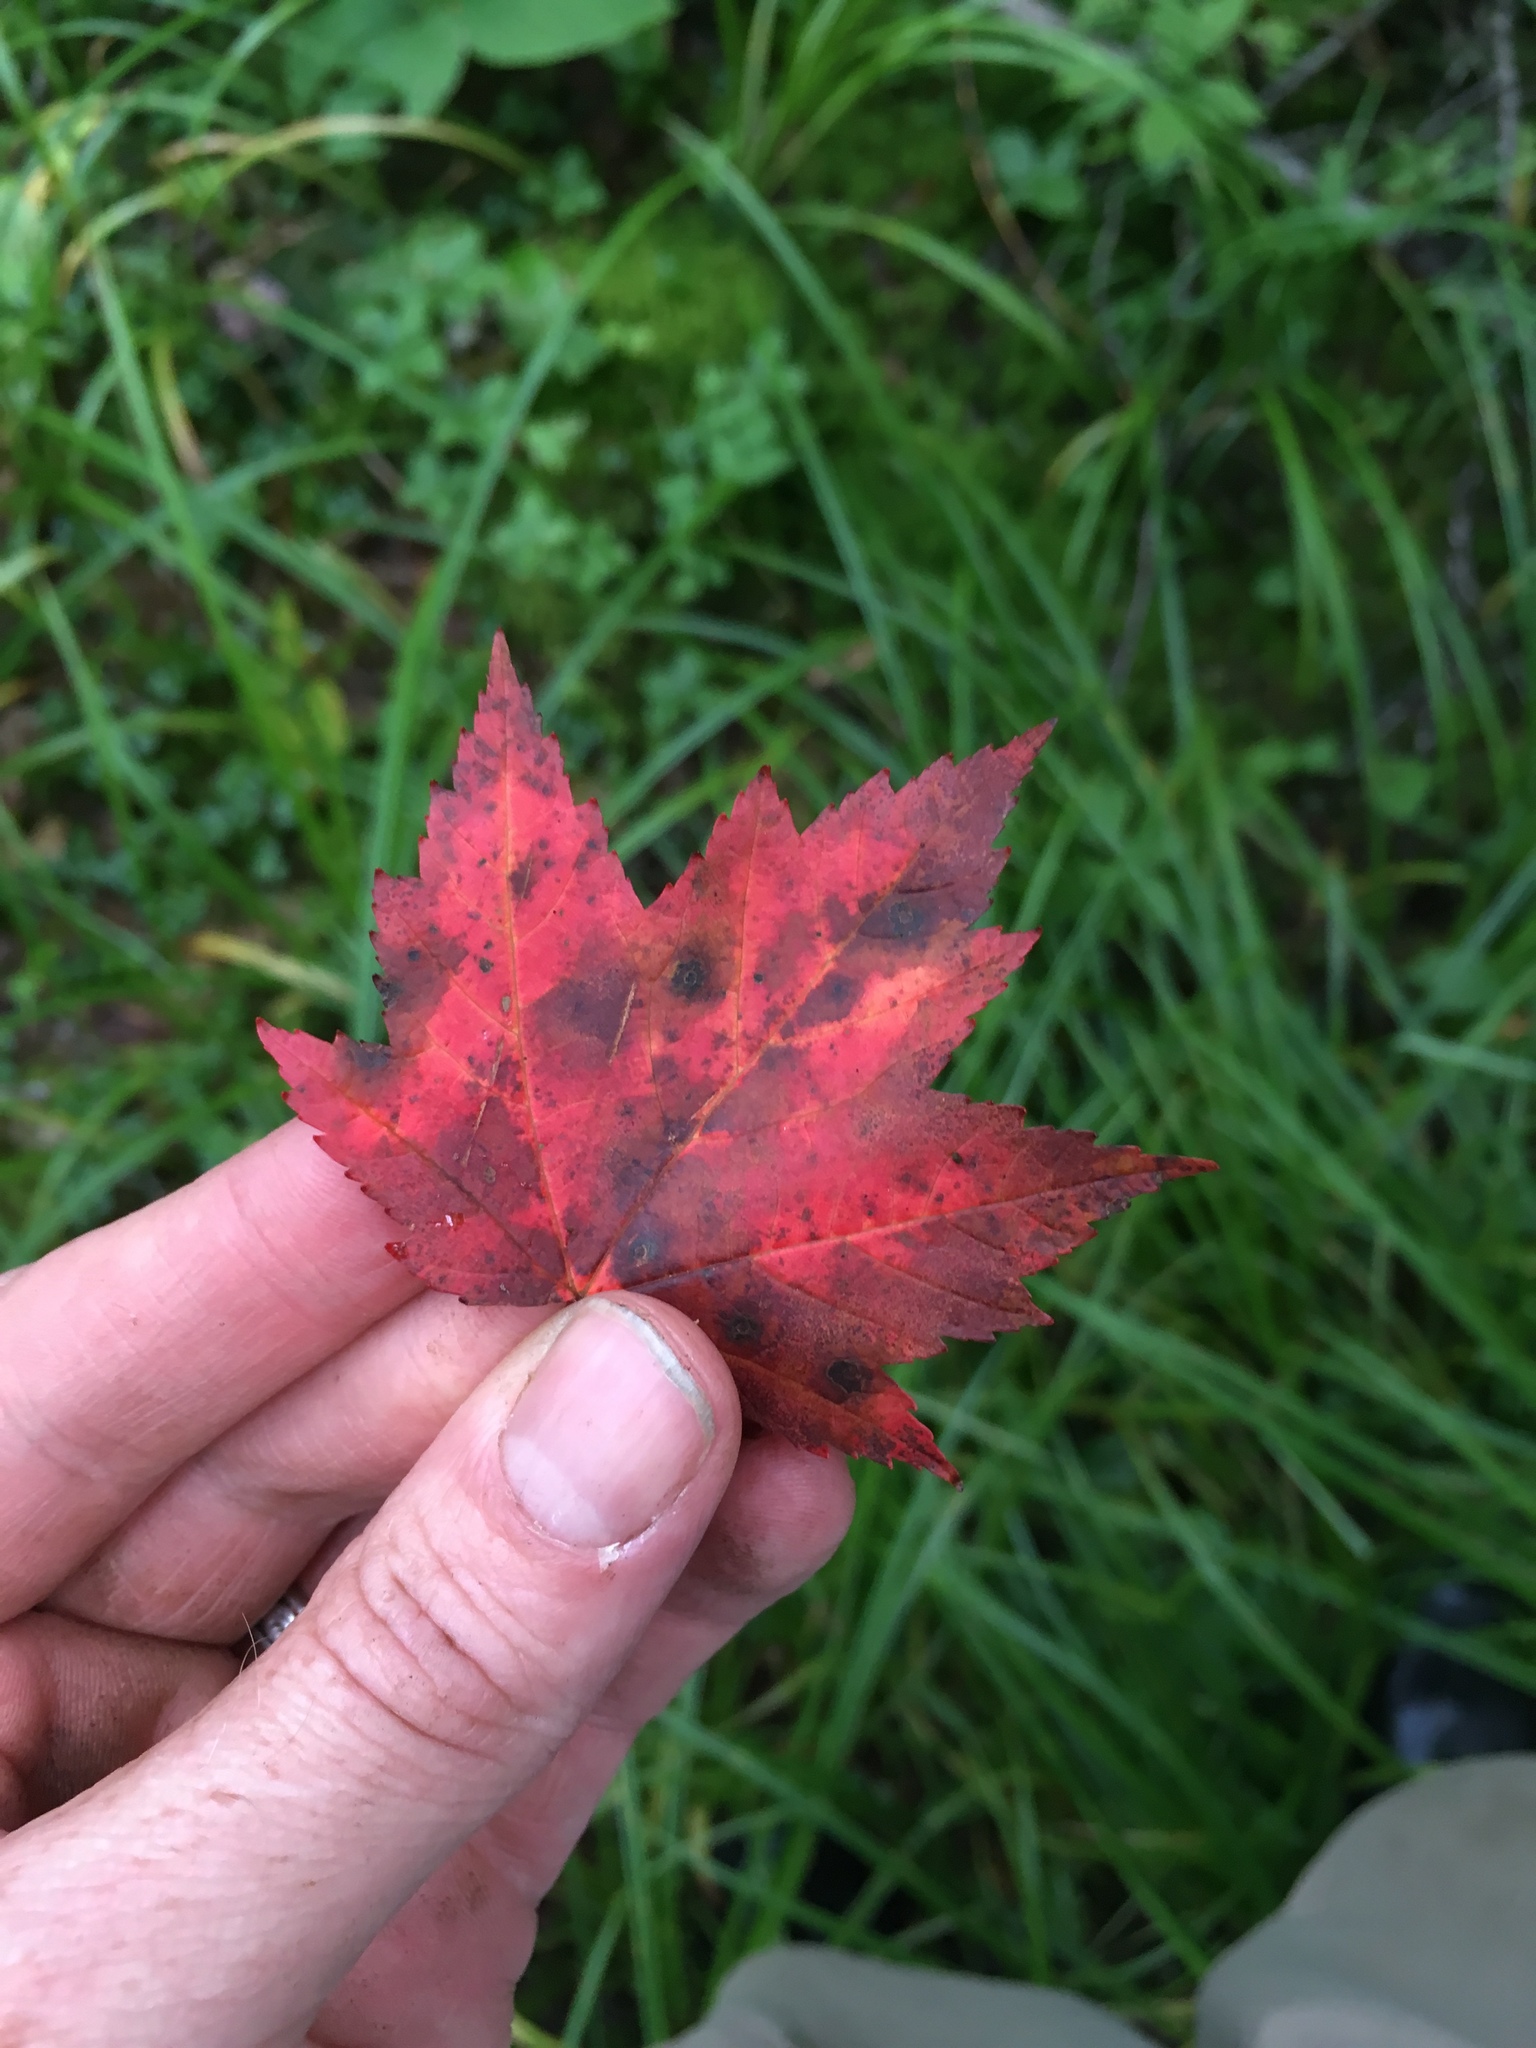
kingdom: Plantae
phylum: Tracheophyta
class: Magnoliopsida
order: Sapindales
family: Sapindaceae
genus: Acer
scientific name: Acer rubrum
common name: Red maple
